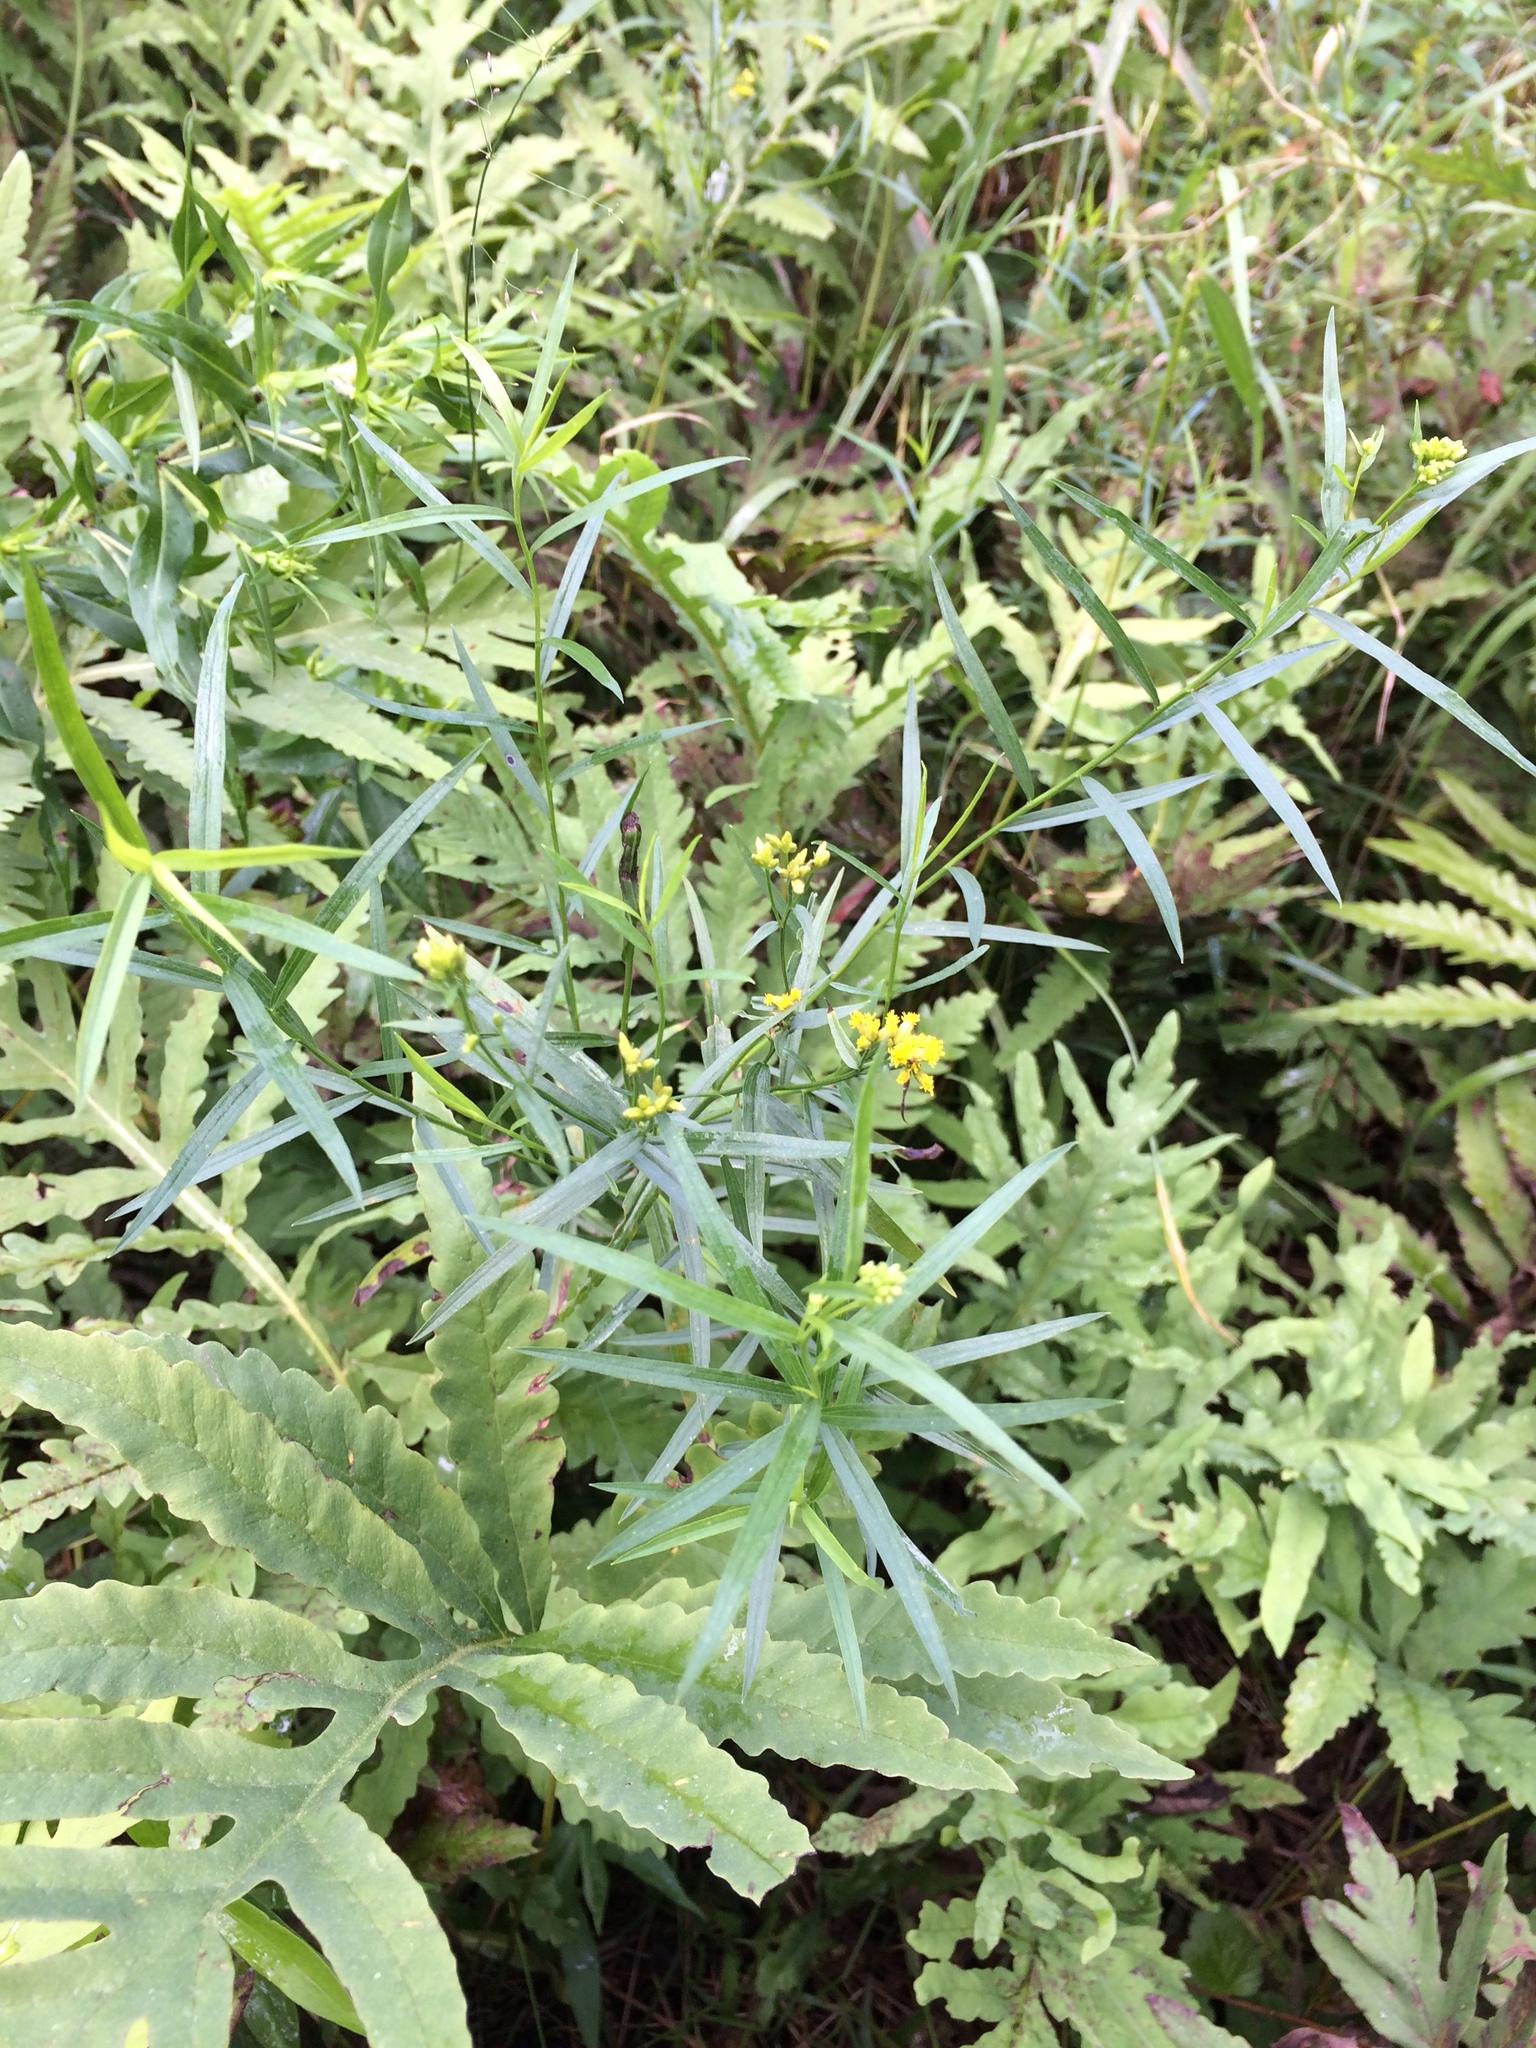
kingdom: Plantae
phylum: Tracheophyta
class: Magnoliopsida
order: Asterales
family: Asteraceae
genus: Euthamia
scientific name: Euthamia graminifolia
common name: Common goldentop
